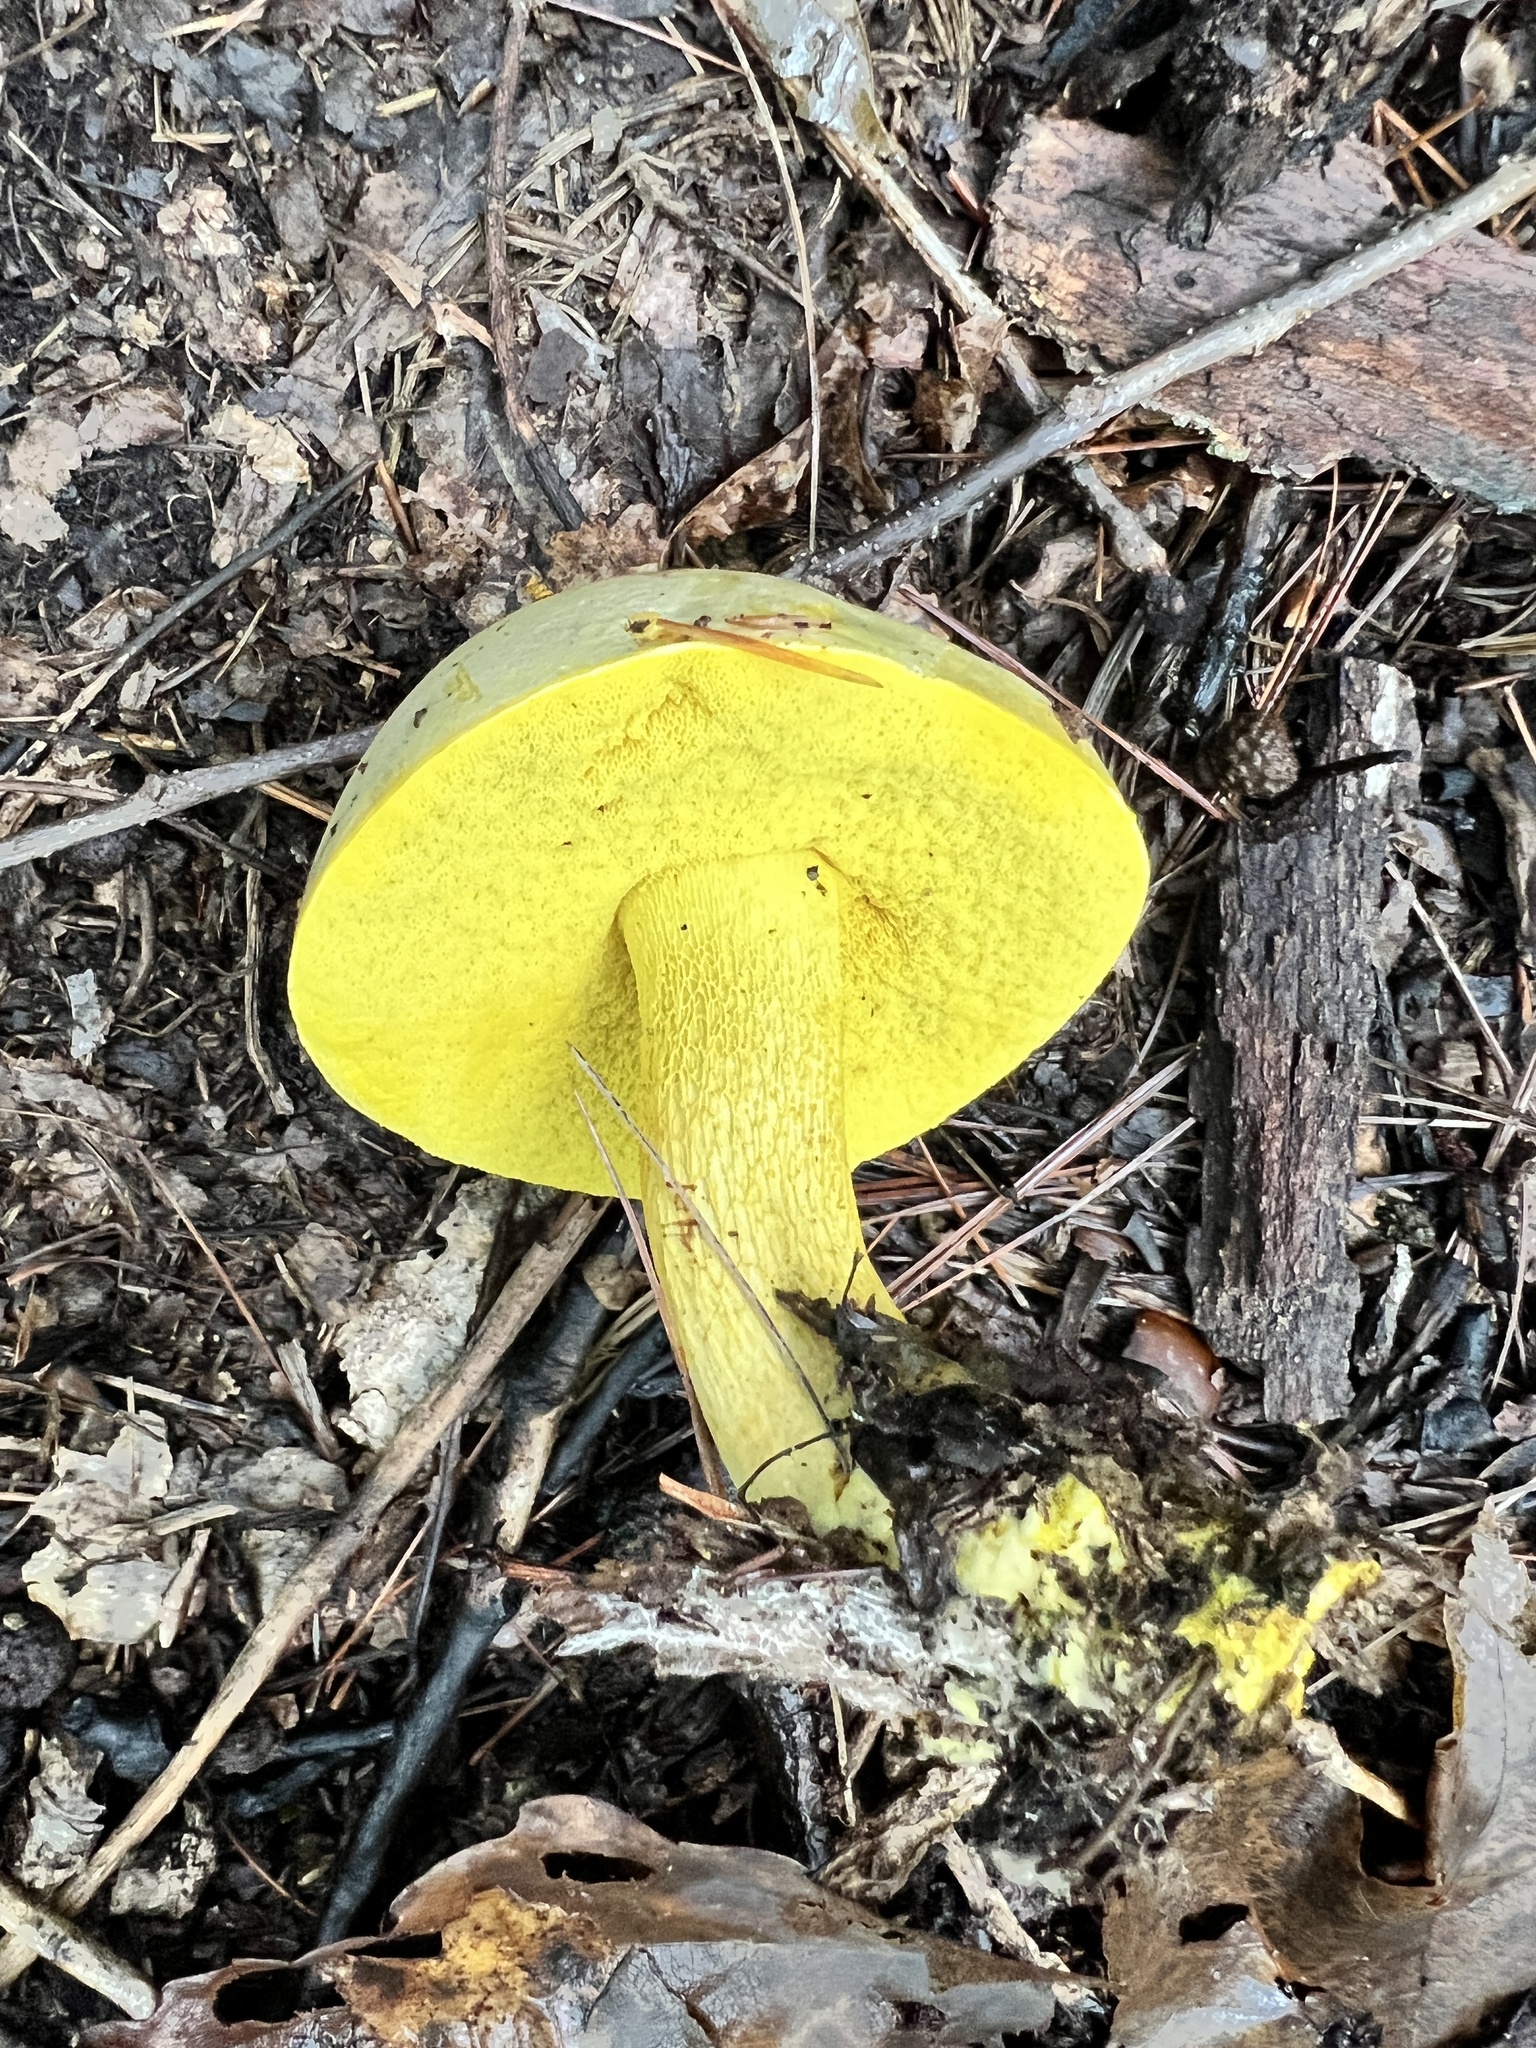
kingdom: Fungi
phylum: Basidiomycota
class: Agaricomycetes
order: Boletales
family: Boletaceae
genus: Retiboletus
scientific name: Retiboletus ornatipes
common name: Ornate-stalked bolete
